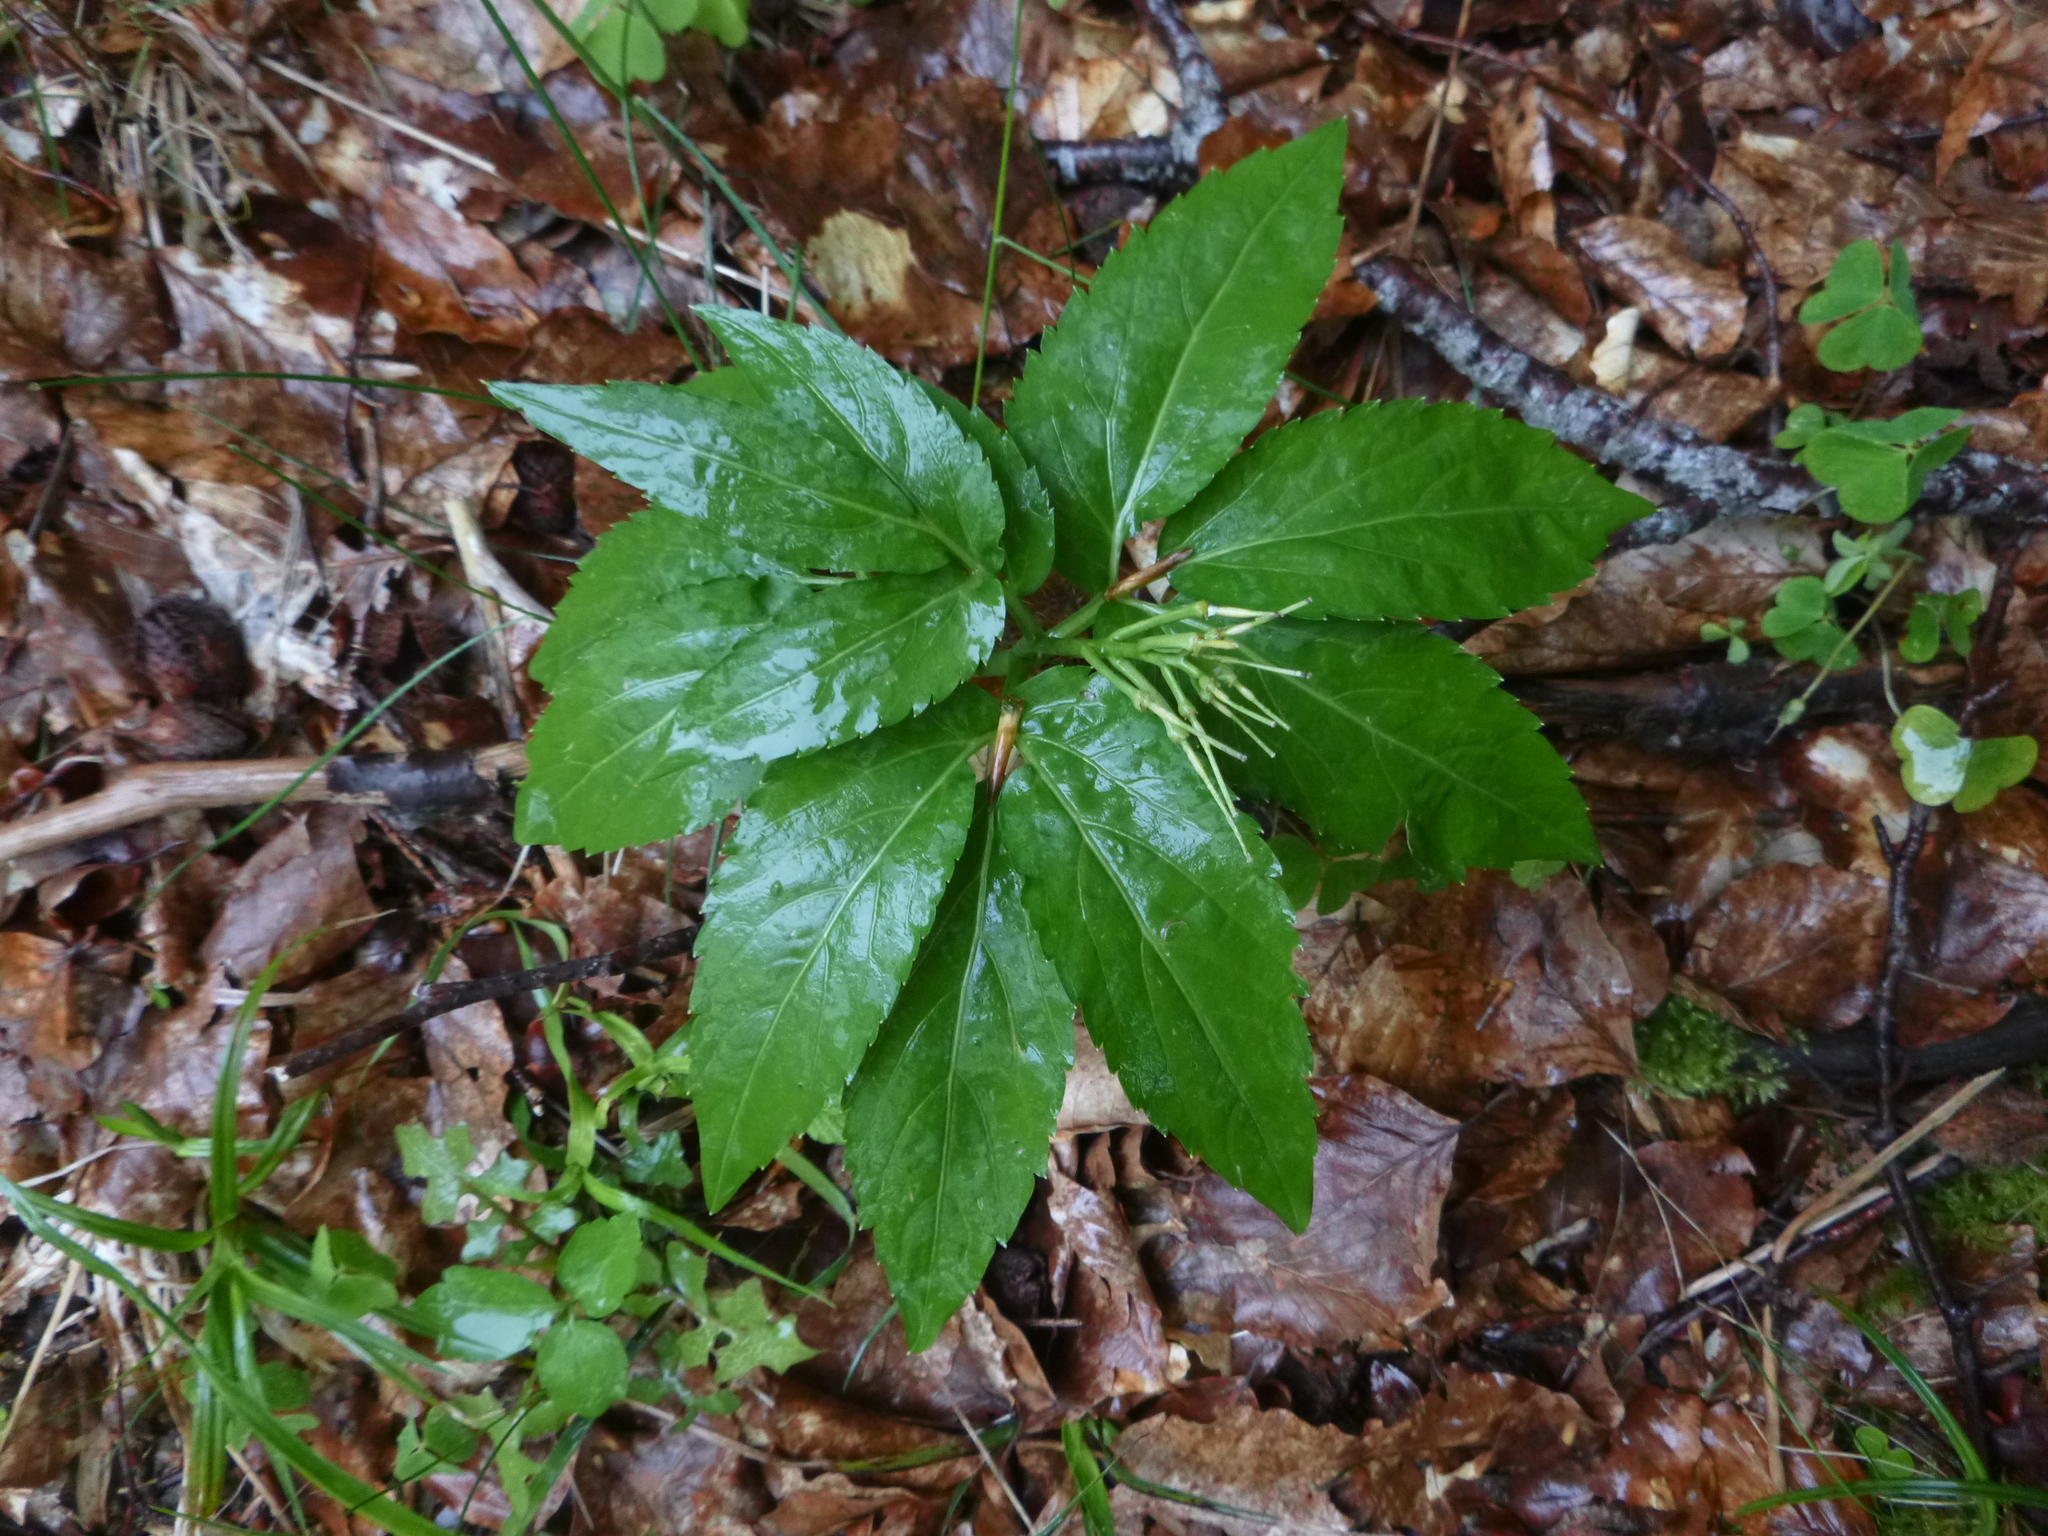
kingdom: Plantae
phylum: Tracheophyta
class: Magnoliopsida
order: Brassicales
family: Brassicaceae
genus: Cardamine
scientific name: Cardamine enneaphyllos
